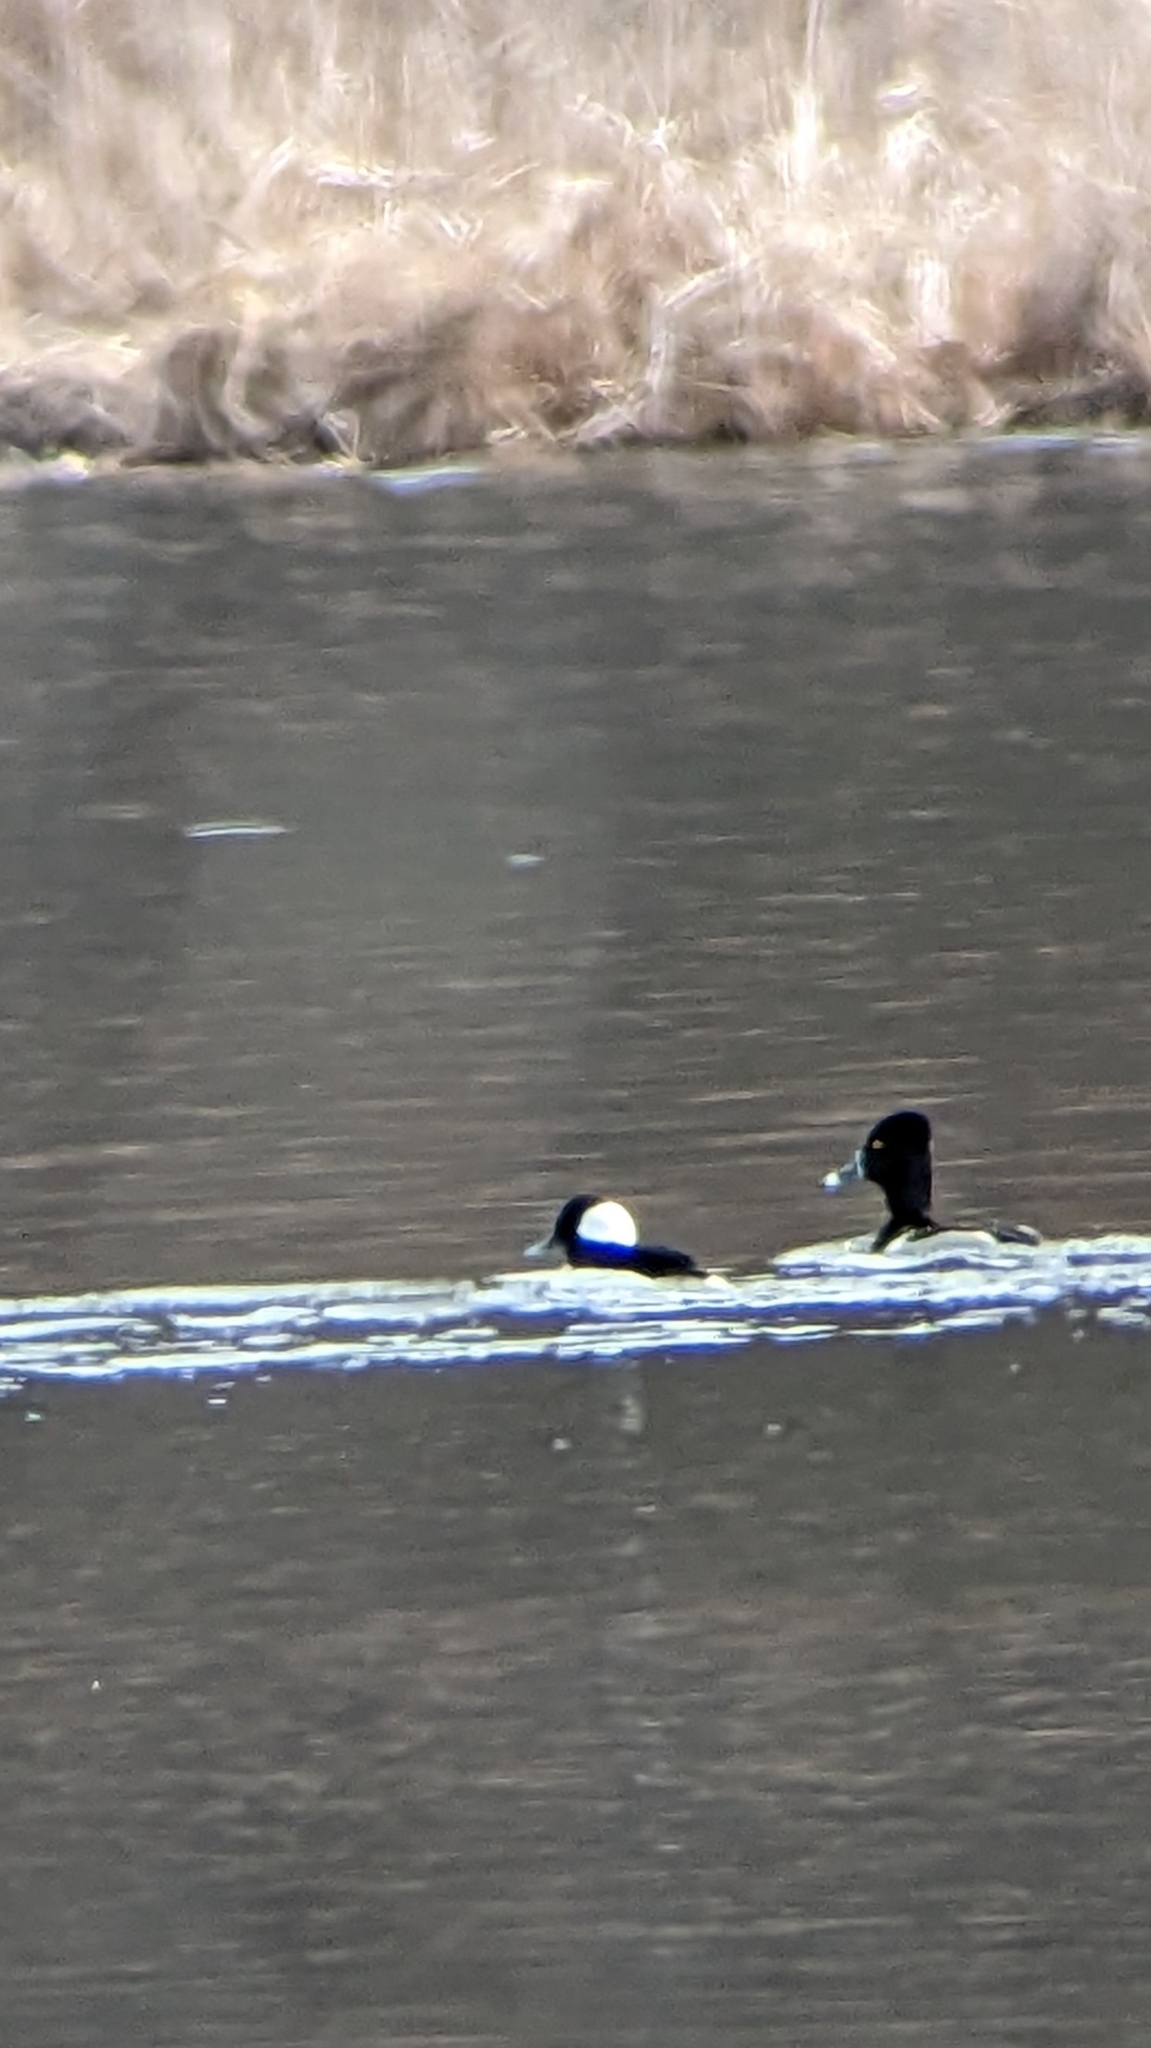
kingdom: Animalia
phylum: Chordata
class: Aves
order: Anseriformes
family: Anatidae
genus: Bucephala
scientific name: Bucephala albeola
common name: Bufflehead
